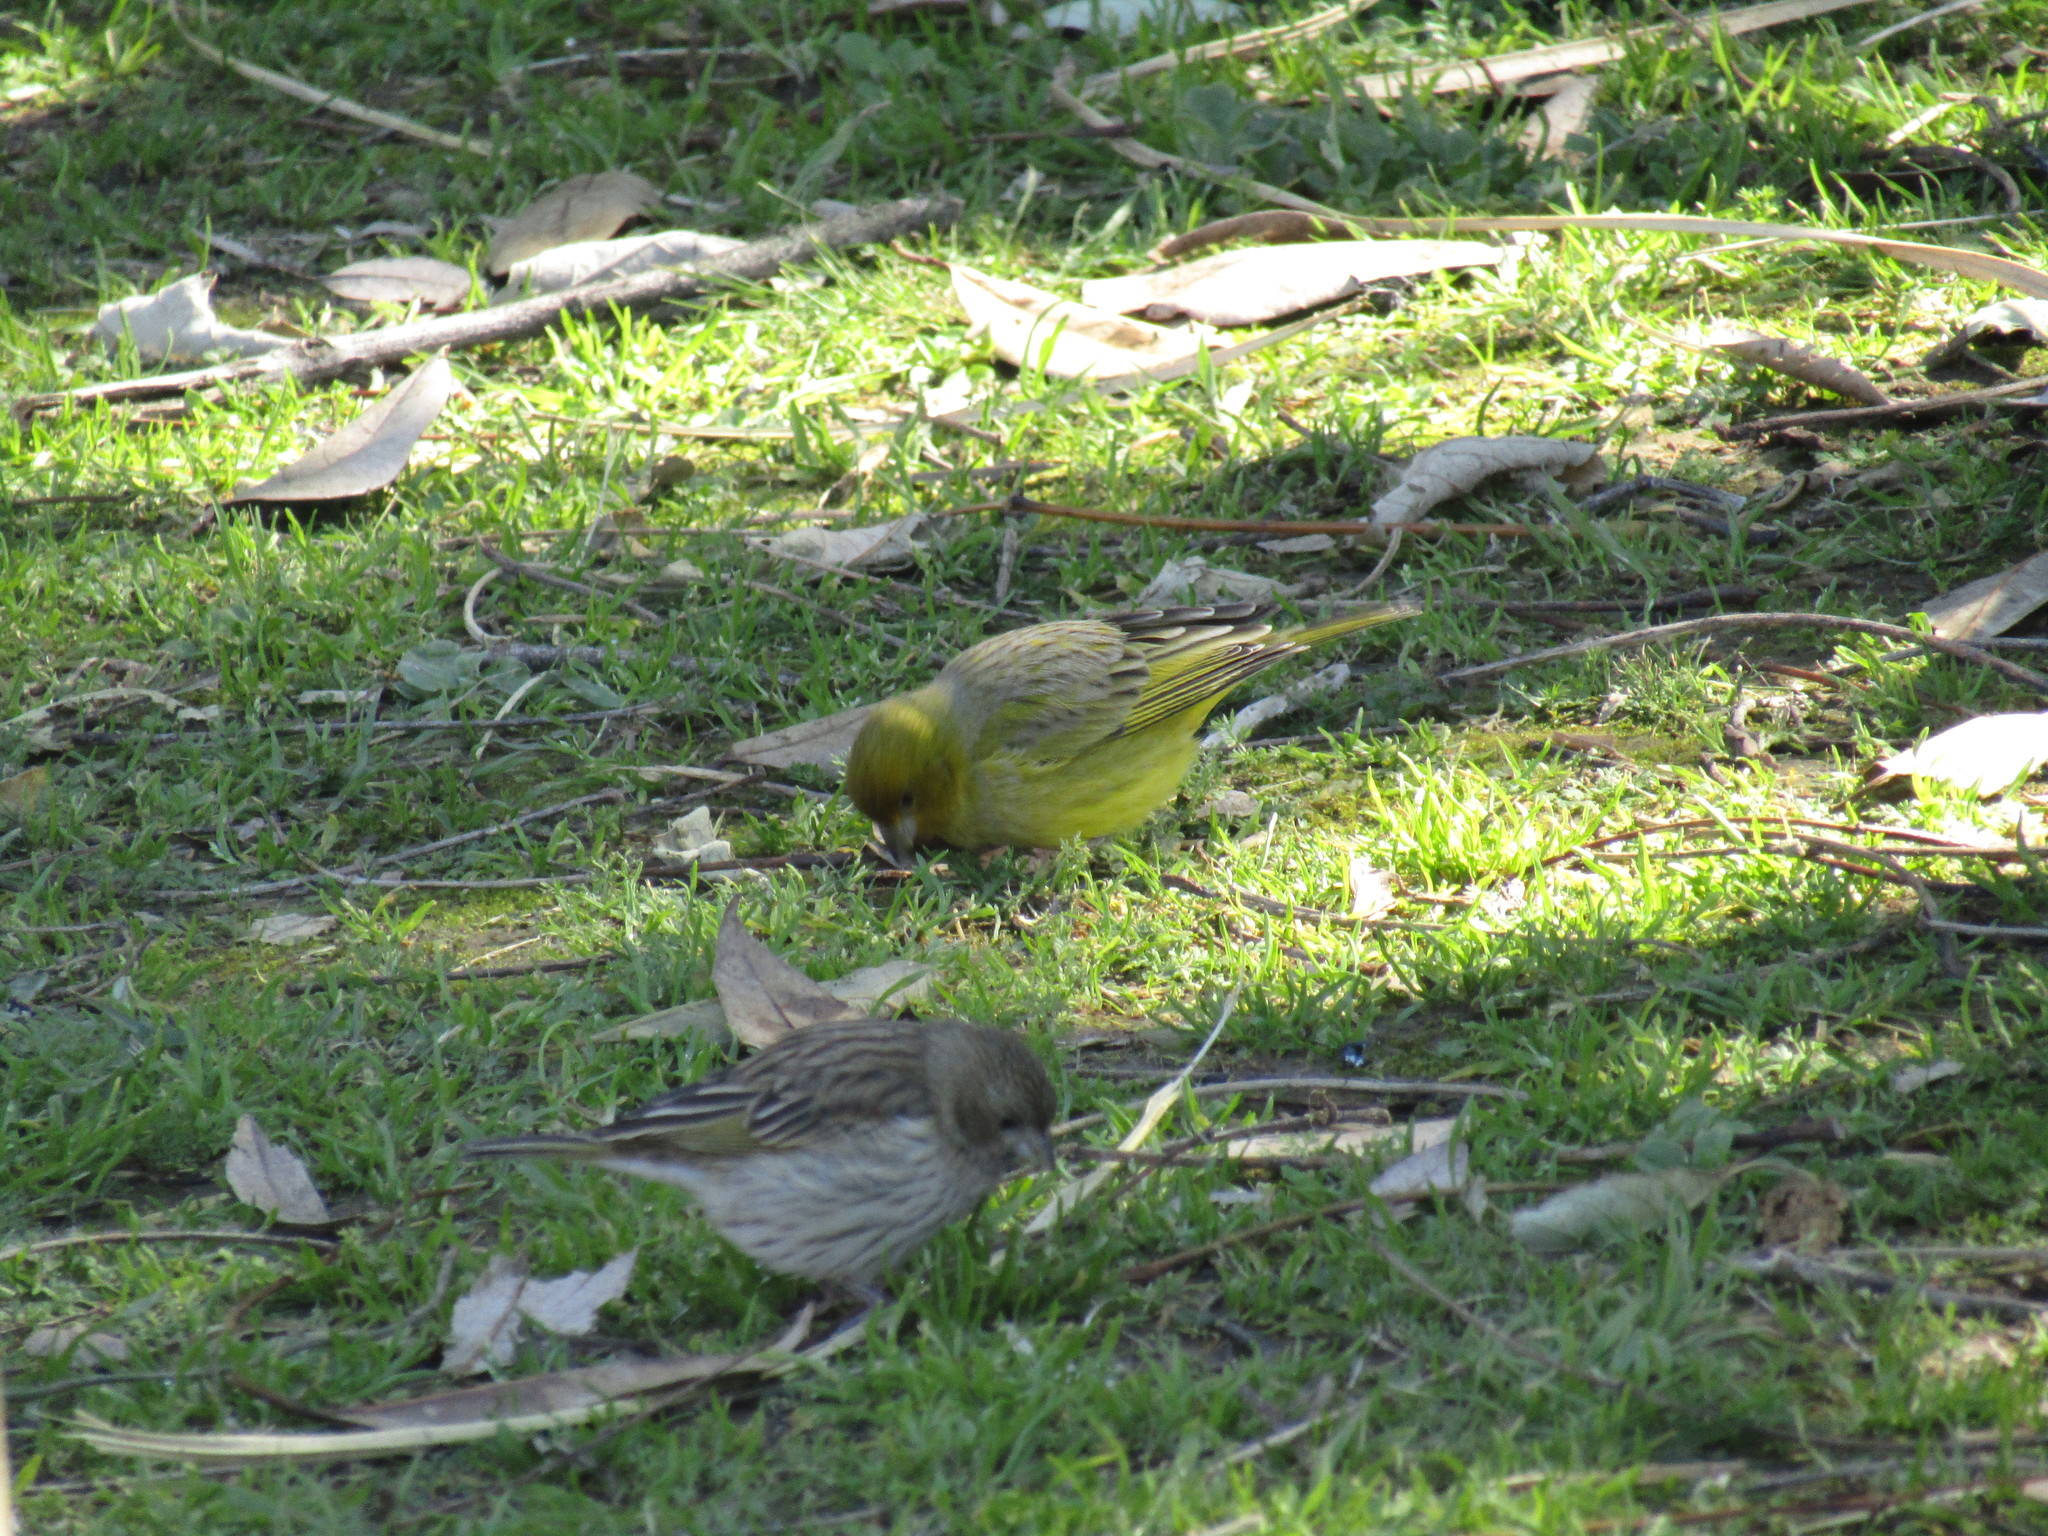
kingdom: Animalia
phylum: Chordata
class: Aves
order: Passeriformes
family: Thraupidae
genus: Sicalis
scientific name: Sicalis flaveola
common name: Saffron finch
